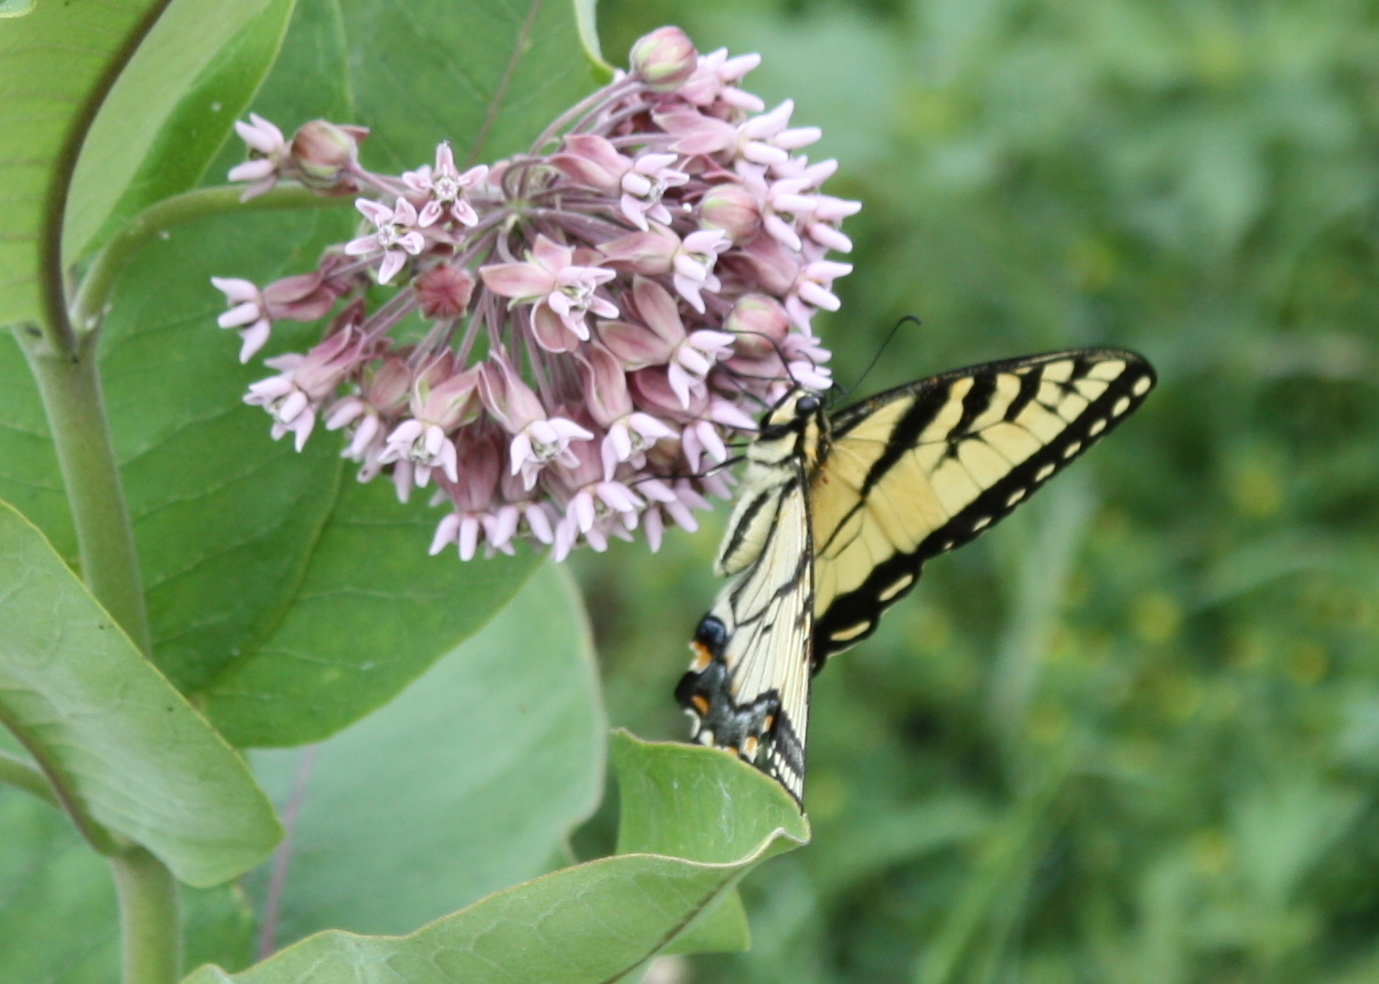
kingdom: Animalia
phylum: Arthropoda
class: Insecta
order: Lepidoptera
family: Papilionidae
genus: Papilio
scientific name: Papilio glaucus
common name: Tiger swallowtail
